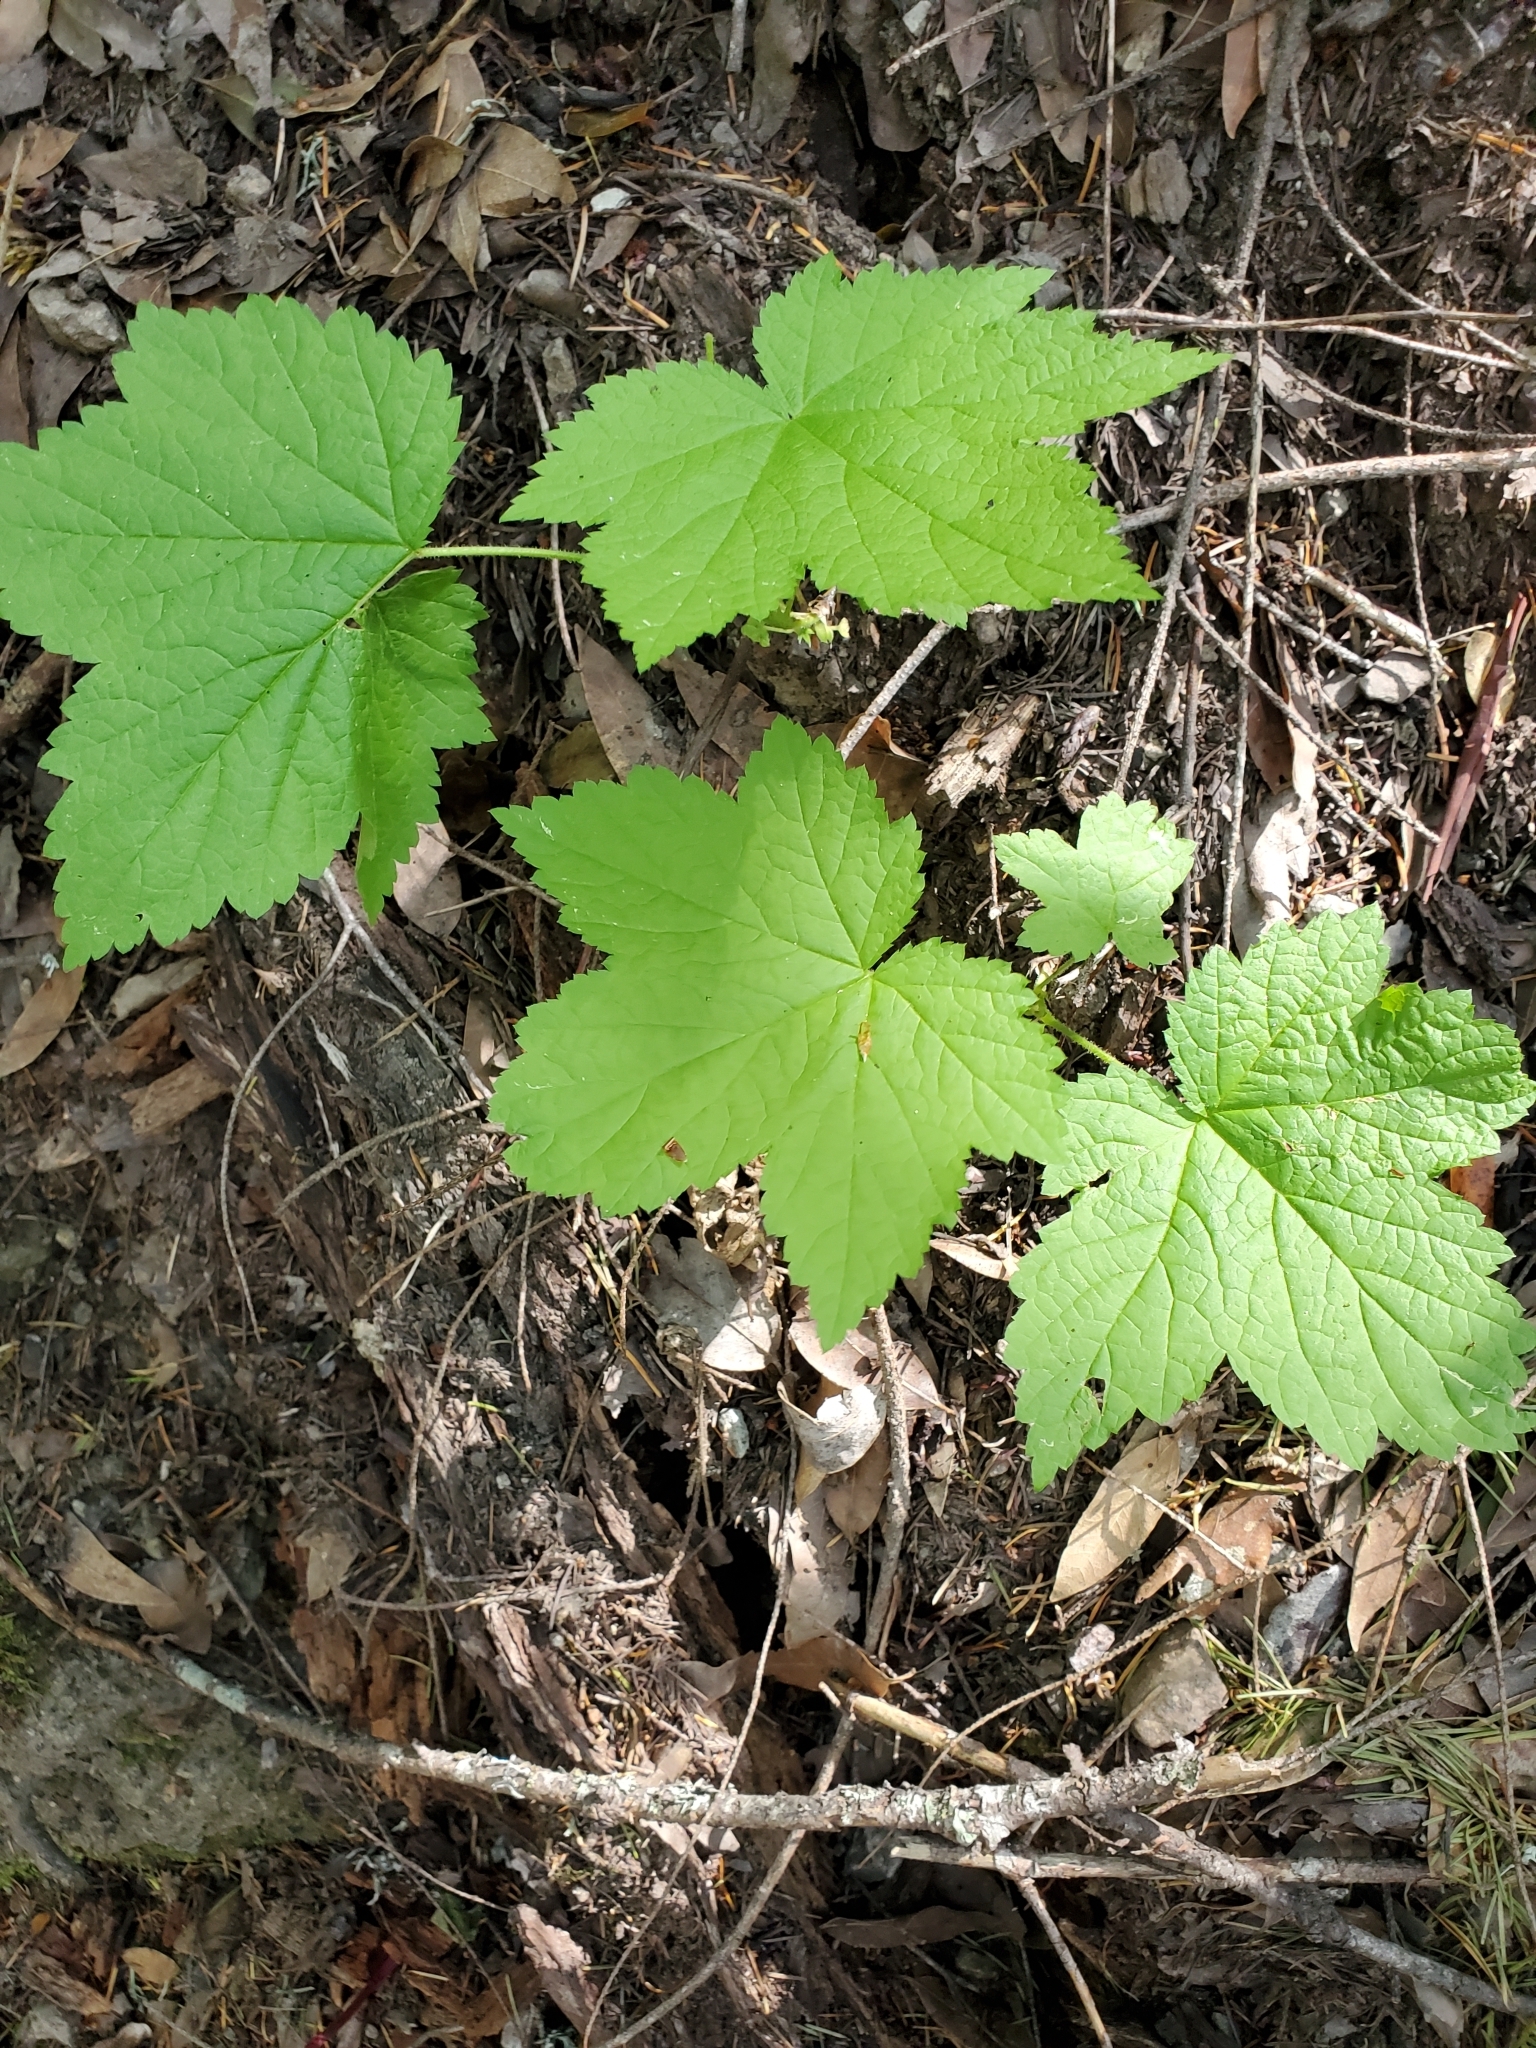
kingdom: Plantae
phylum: Tracheophyta
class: Magnoliopsida
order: Rosales
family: Rosaceae
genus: Rubus
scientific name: Rubus parviflorus
